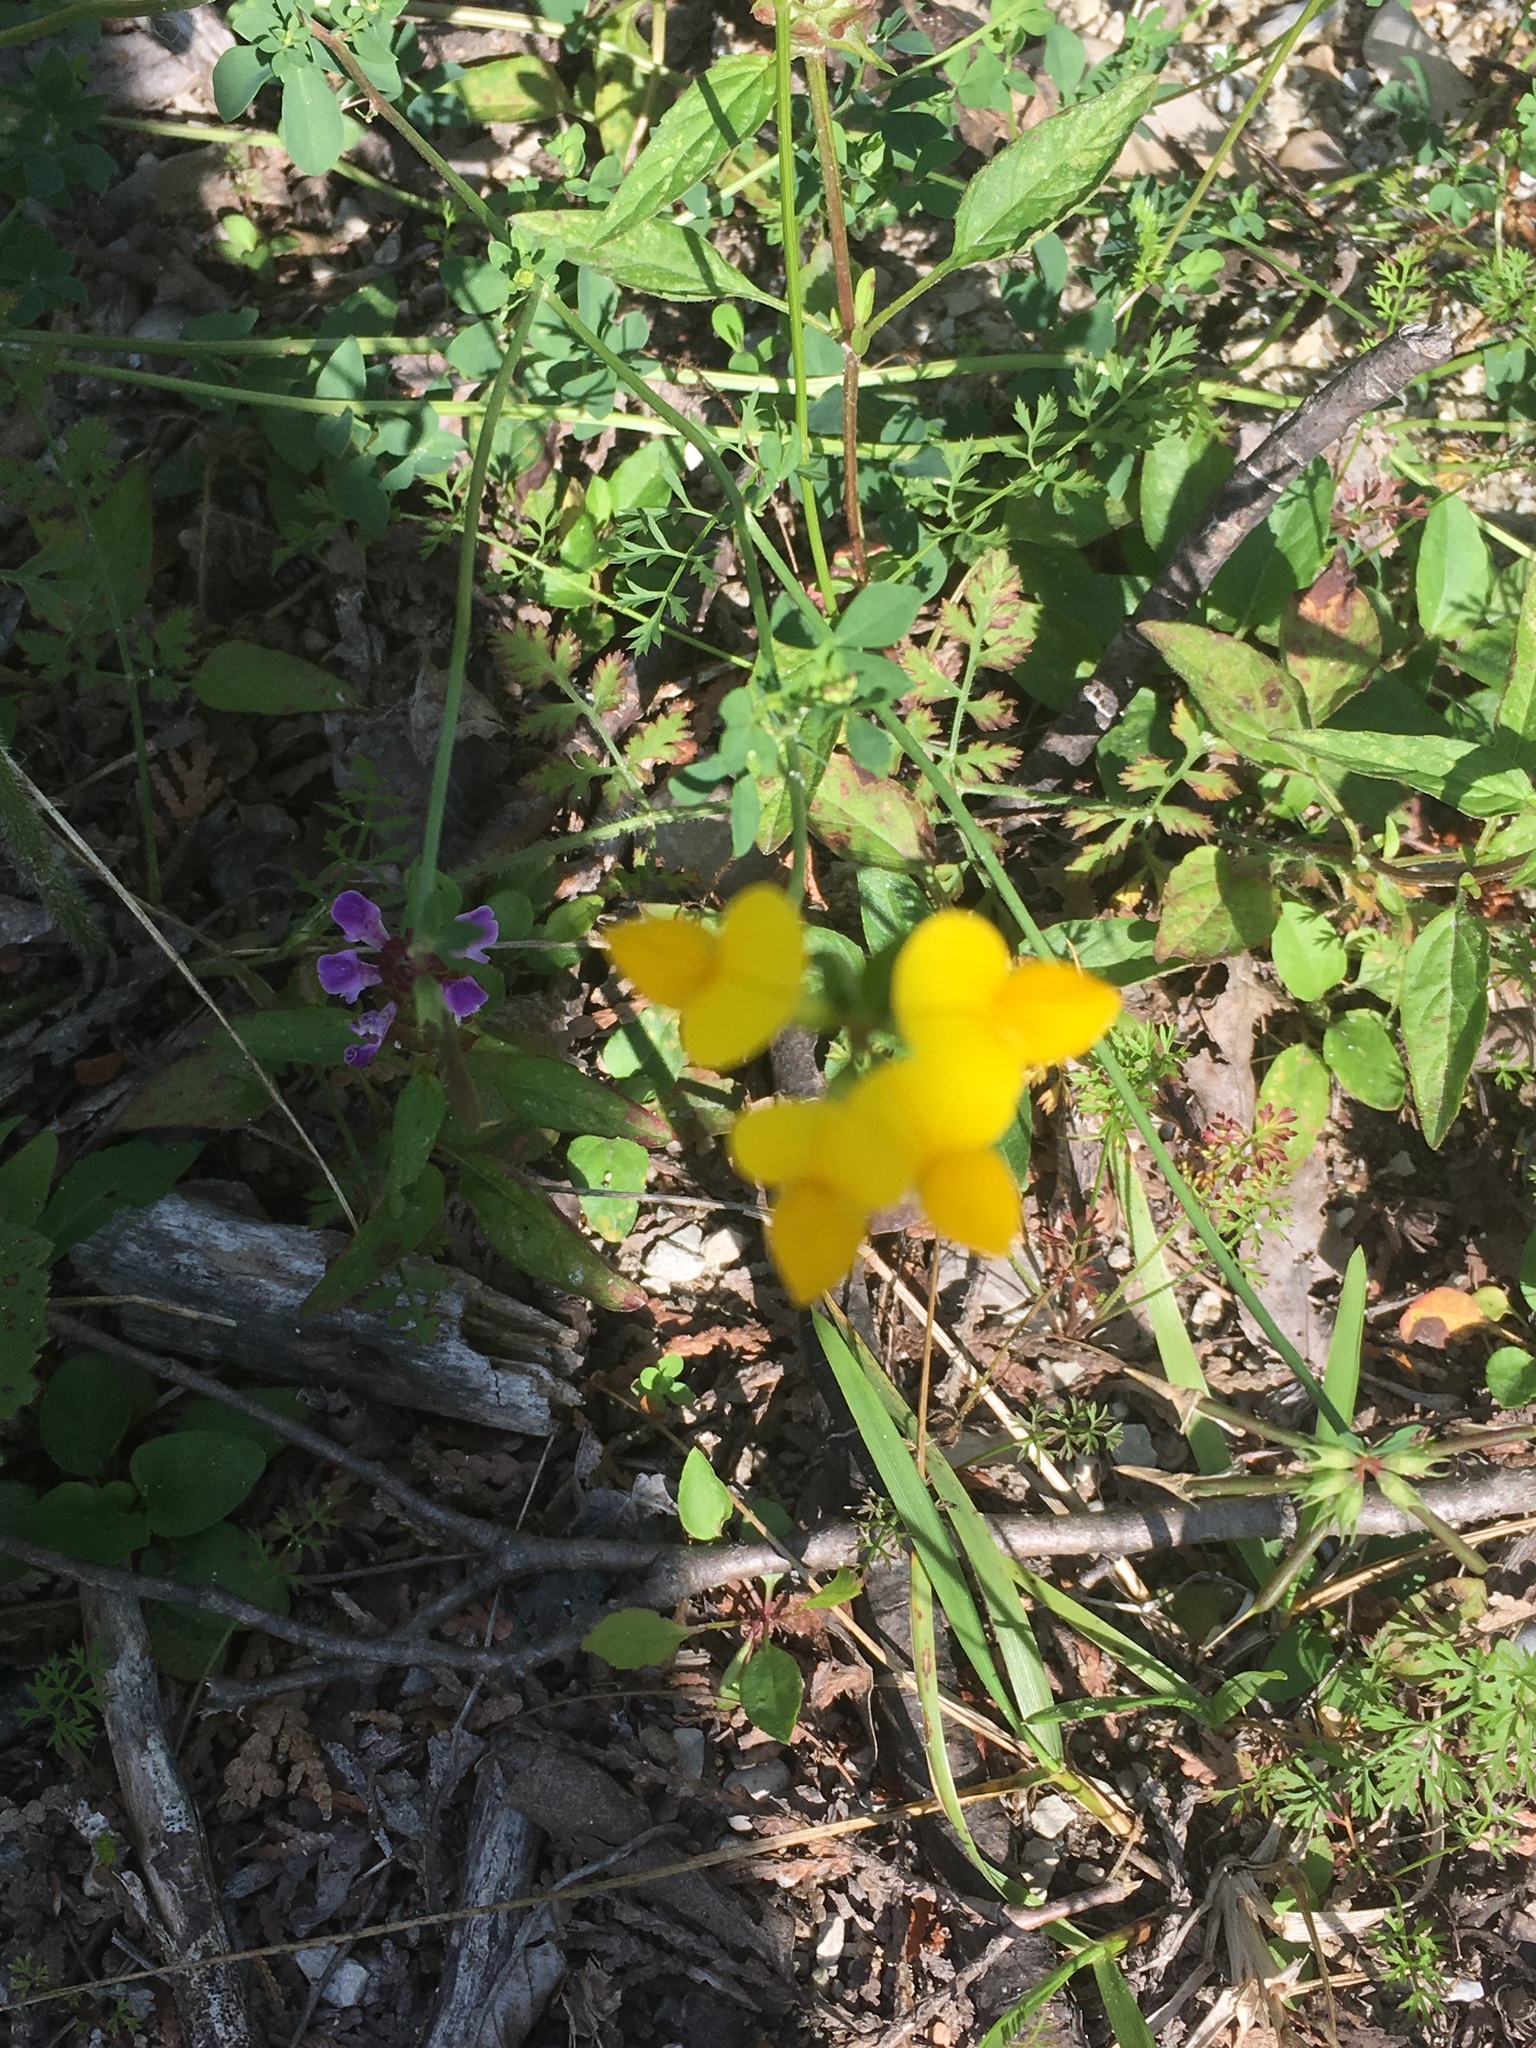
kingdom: Plantae
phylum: Tracheophyta
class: Magnoliopsida
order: Fabales
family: Fabaceae
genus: Lotus
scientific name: Lotus corniculatus
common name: Common bird's-foot-trefoil
